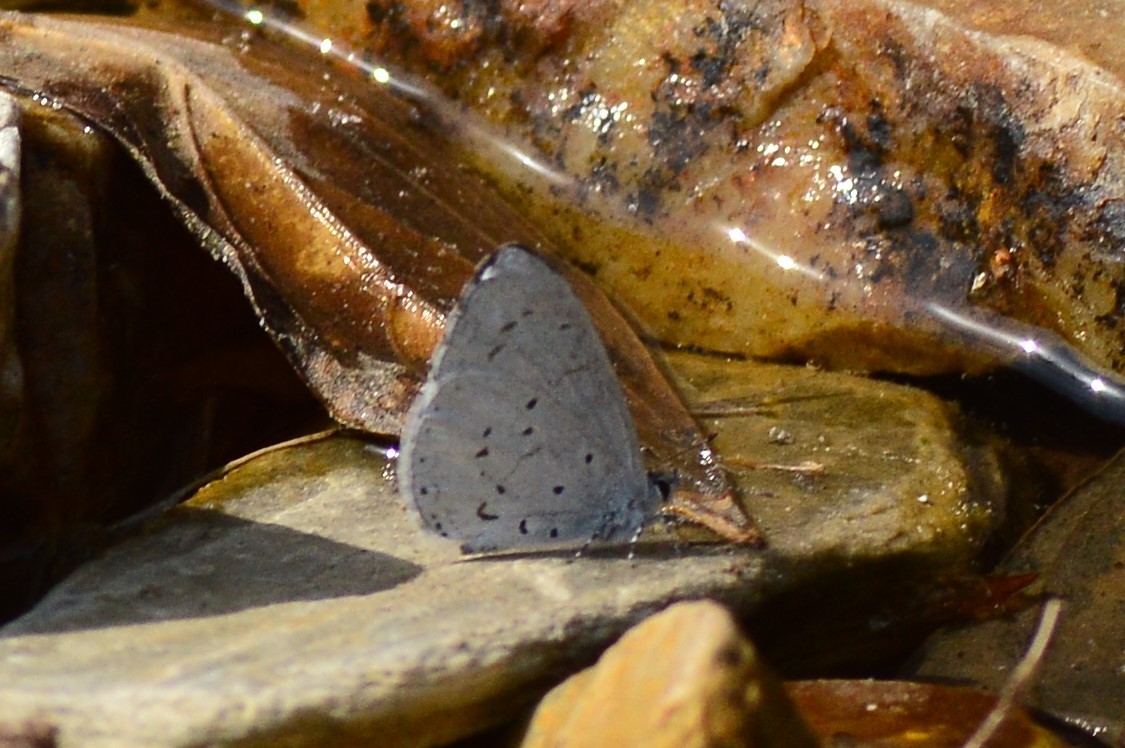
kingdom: Animalia
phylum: Arthropoda
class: Insecta
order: Lepidoptera
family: Lycaenidae
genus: Udara
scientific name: Udara dilectus
